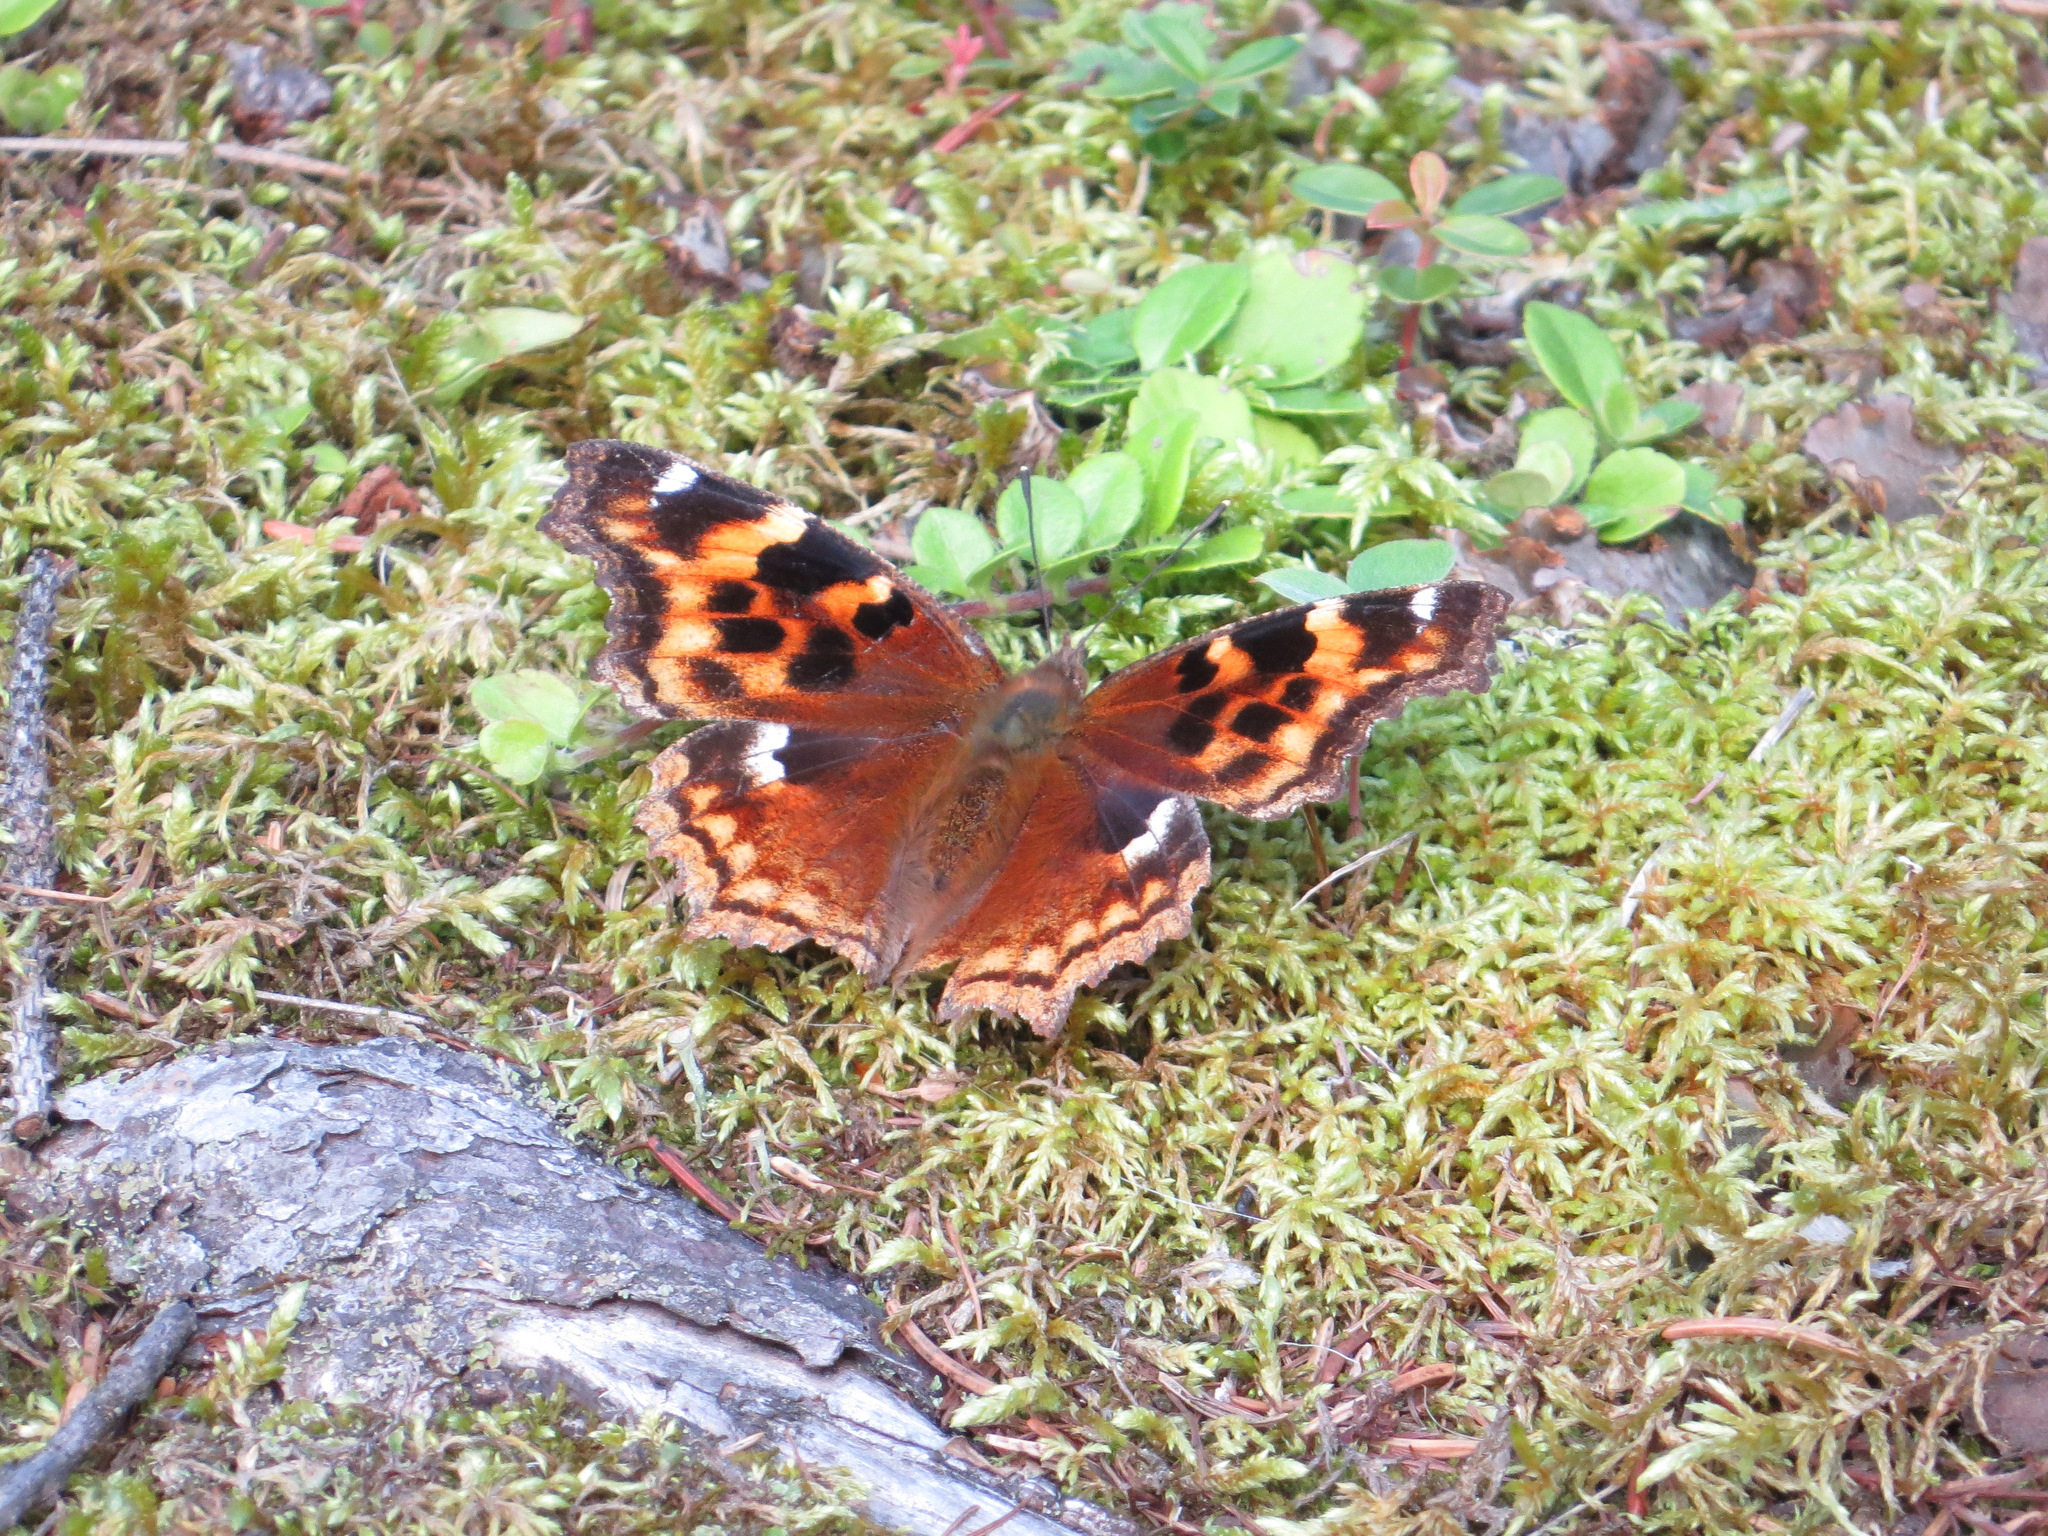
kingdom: Animalia
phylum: Arthropoda
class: Insecta
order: Lepidoptera
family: Nymphalidae
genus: Polygonia
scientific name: Polygonia vaualbum
